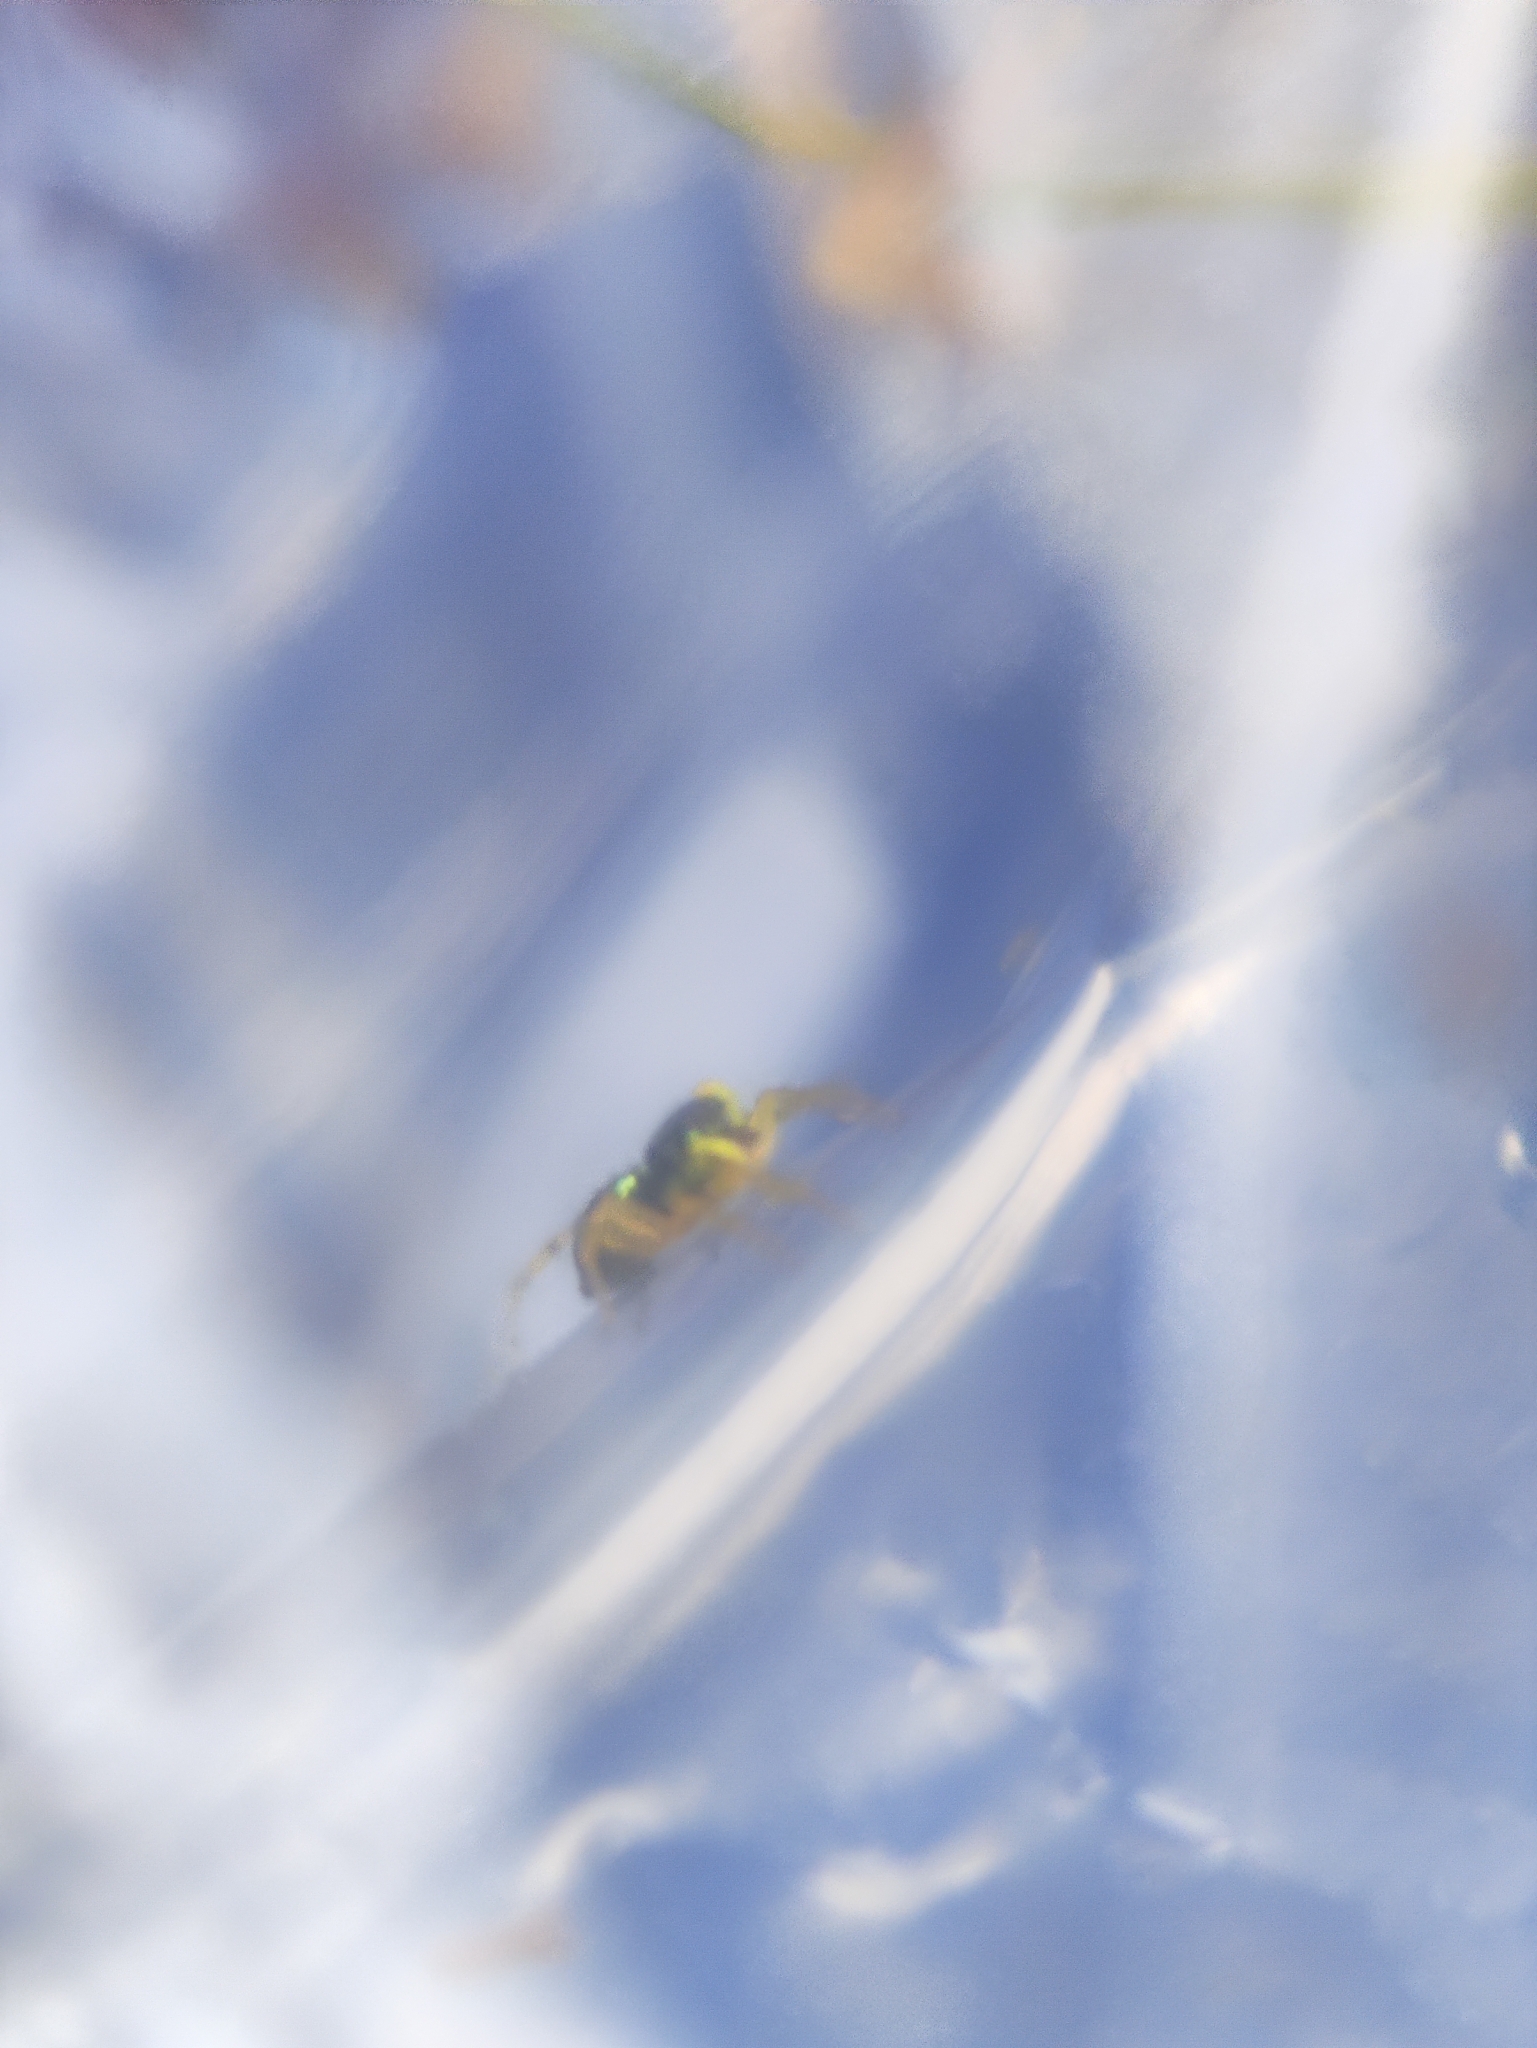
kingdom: Animalia
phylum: Arthropoda
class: Arachnida
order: Araneae
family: Salticidae
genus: Phintella
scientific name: Phintella vittata
